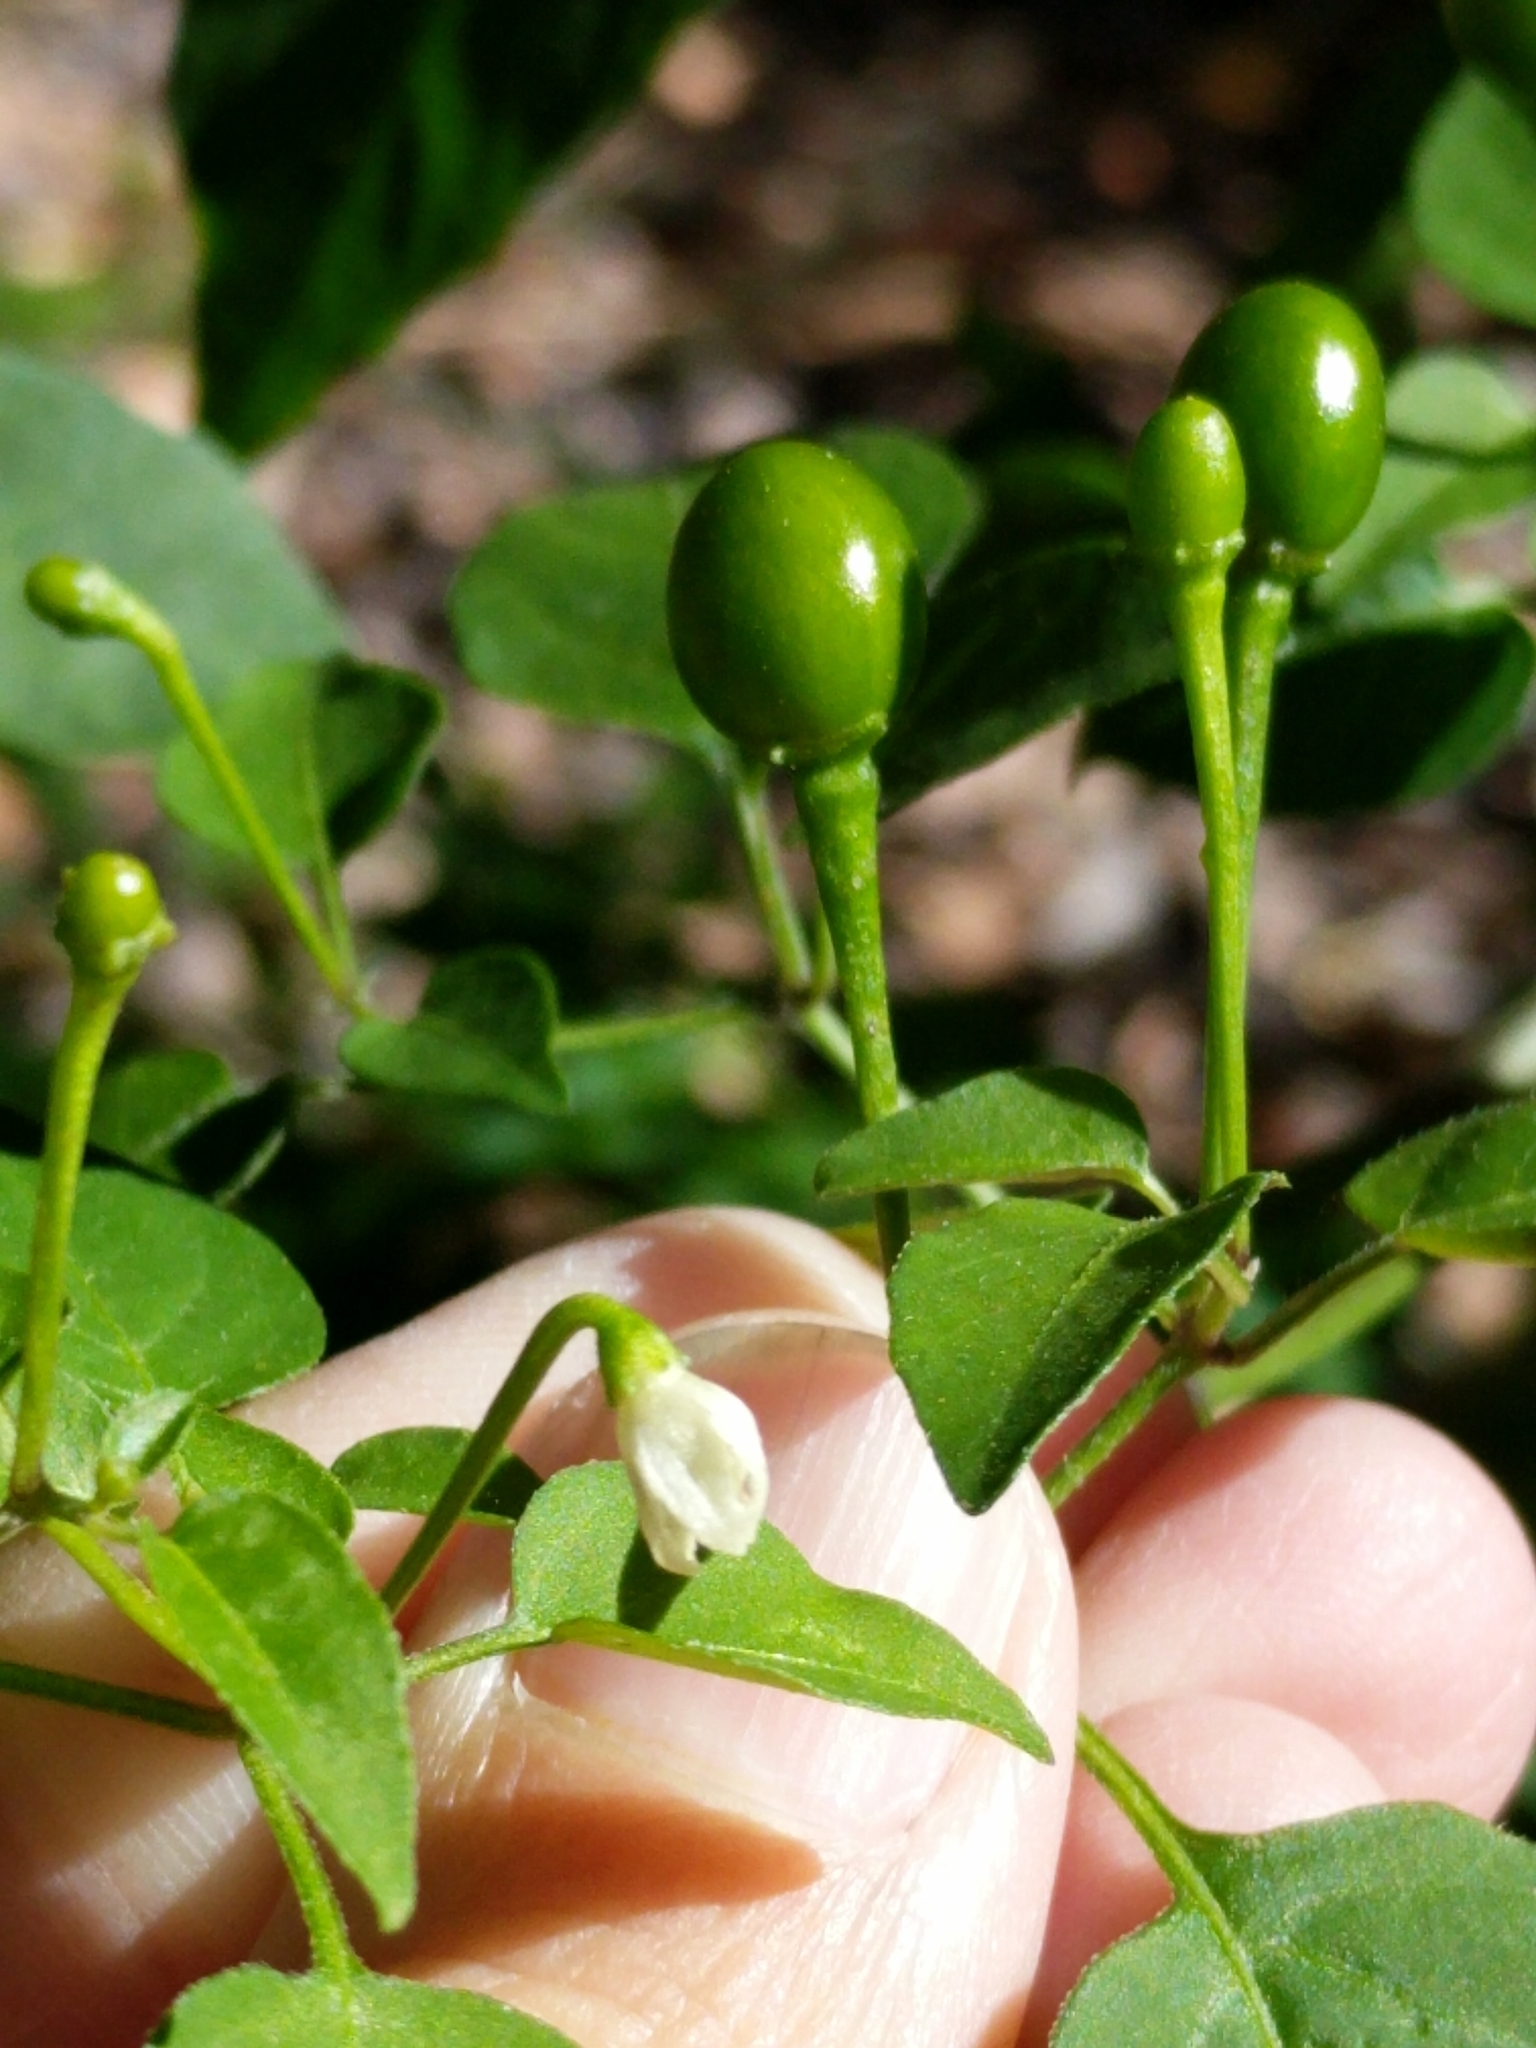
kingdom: Plantae
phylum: Tracheophyta
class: Magnoliopsida
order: Solanales
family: Solanaceae
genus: Capsicum
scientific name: Capsicum annuum
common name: Sweet pepper
